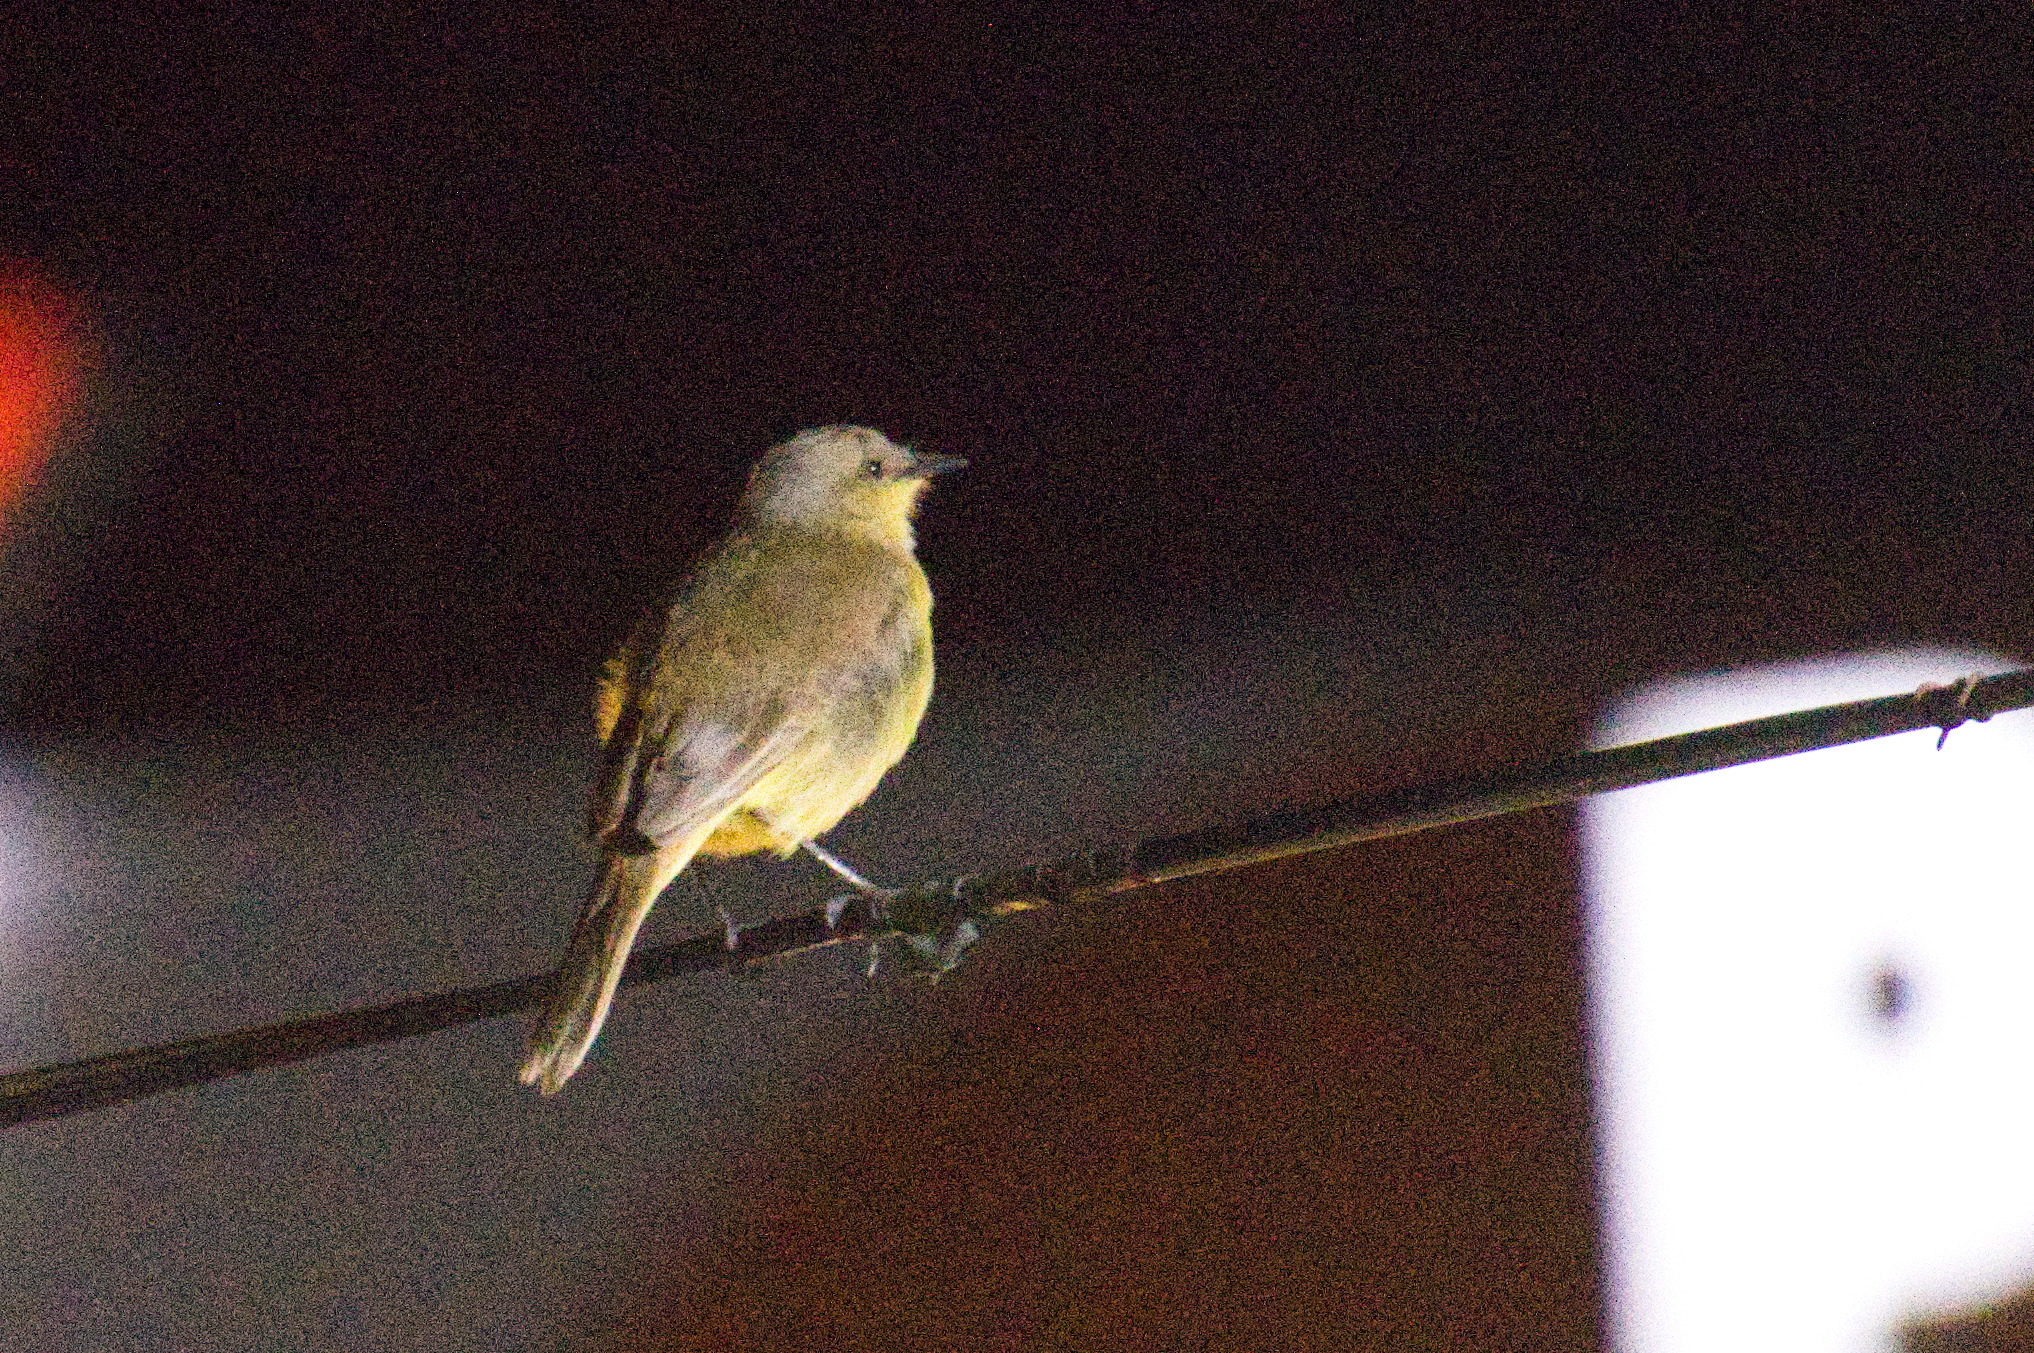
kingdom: Animalia
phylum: Chordata
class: Aves
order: Passeriformes
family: Tyrannidae
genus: Machetornis
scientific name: Machetornis rixosa
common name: Cattle tyrant
